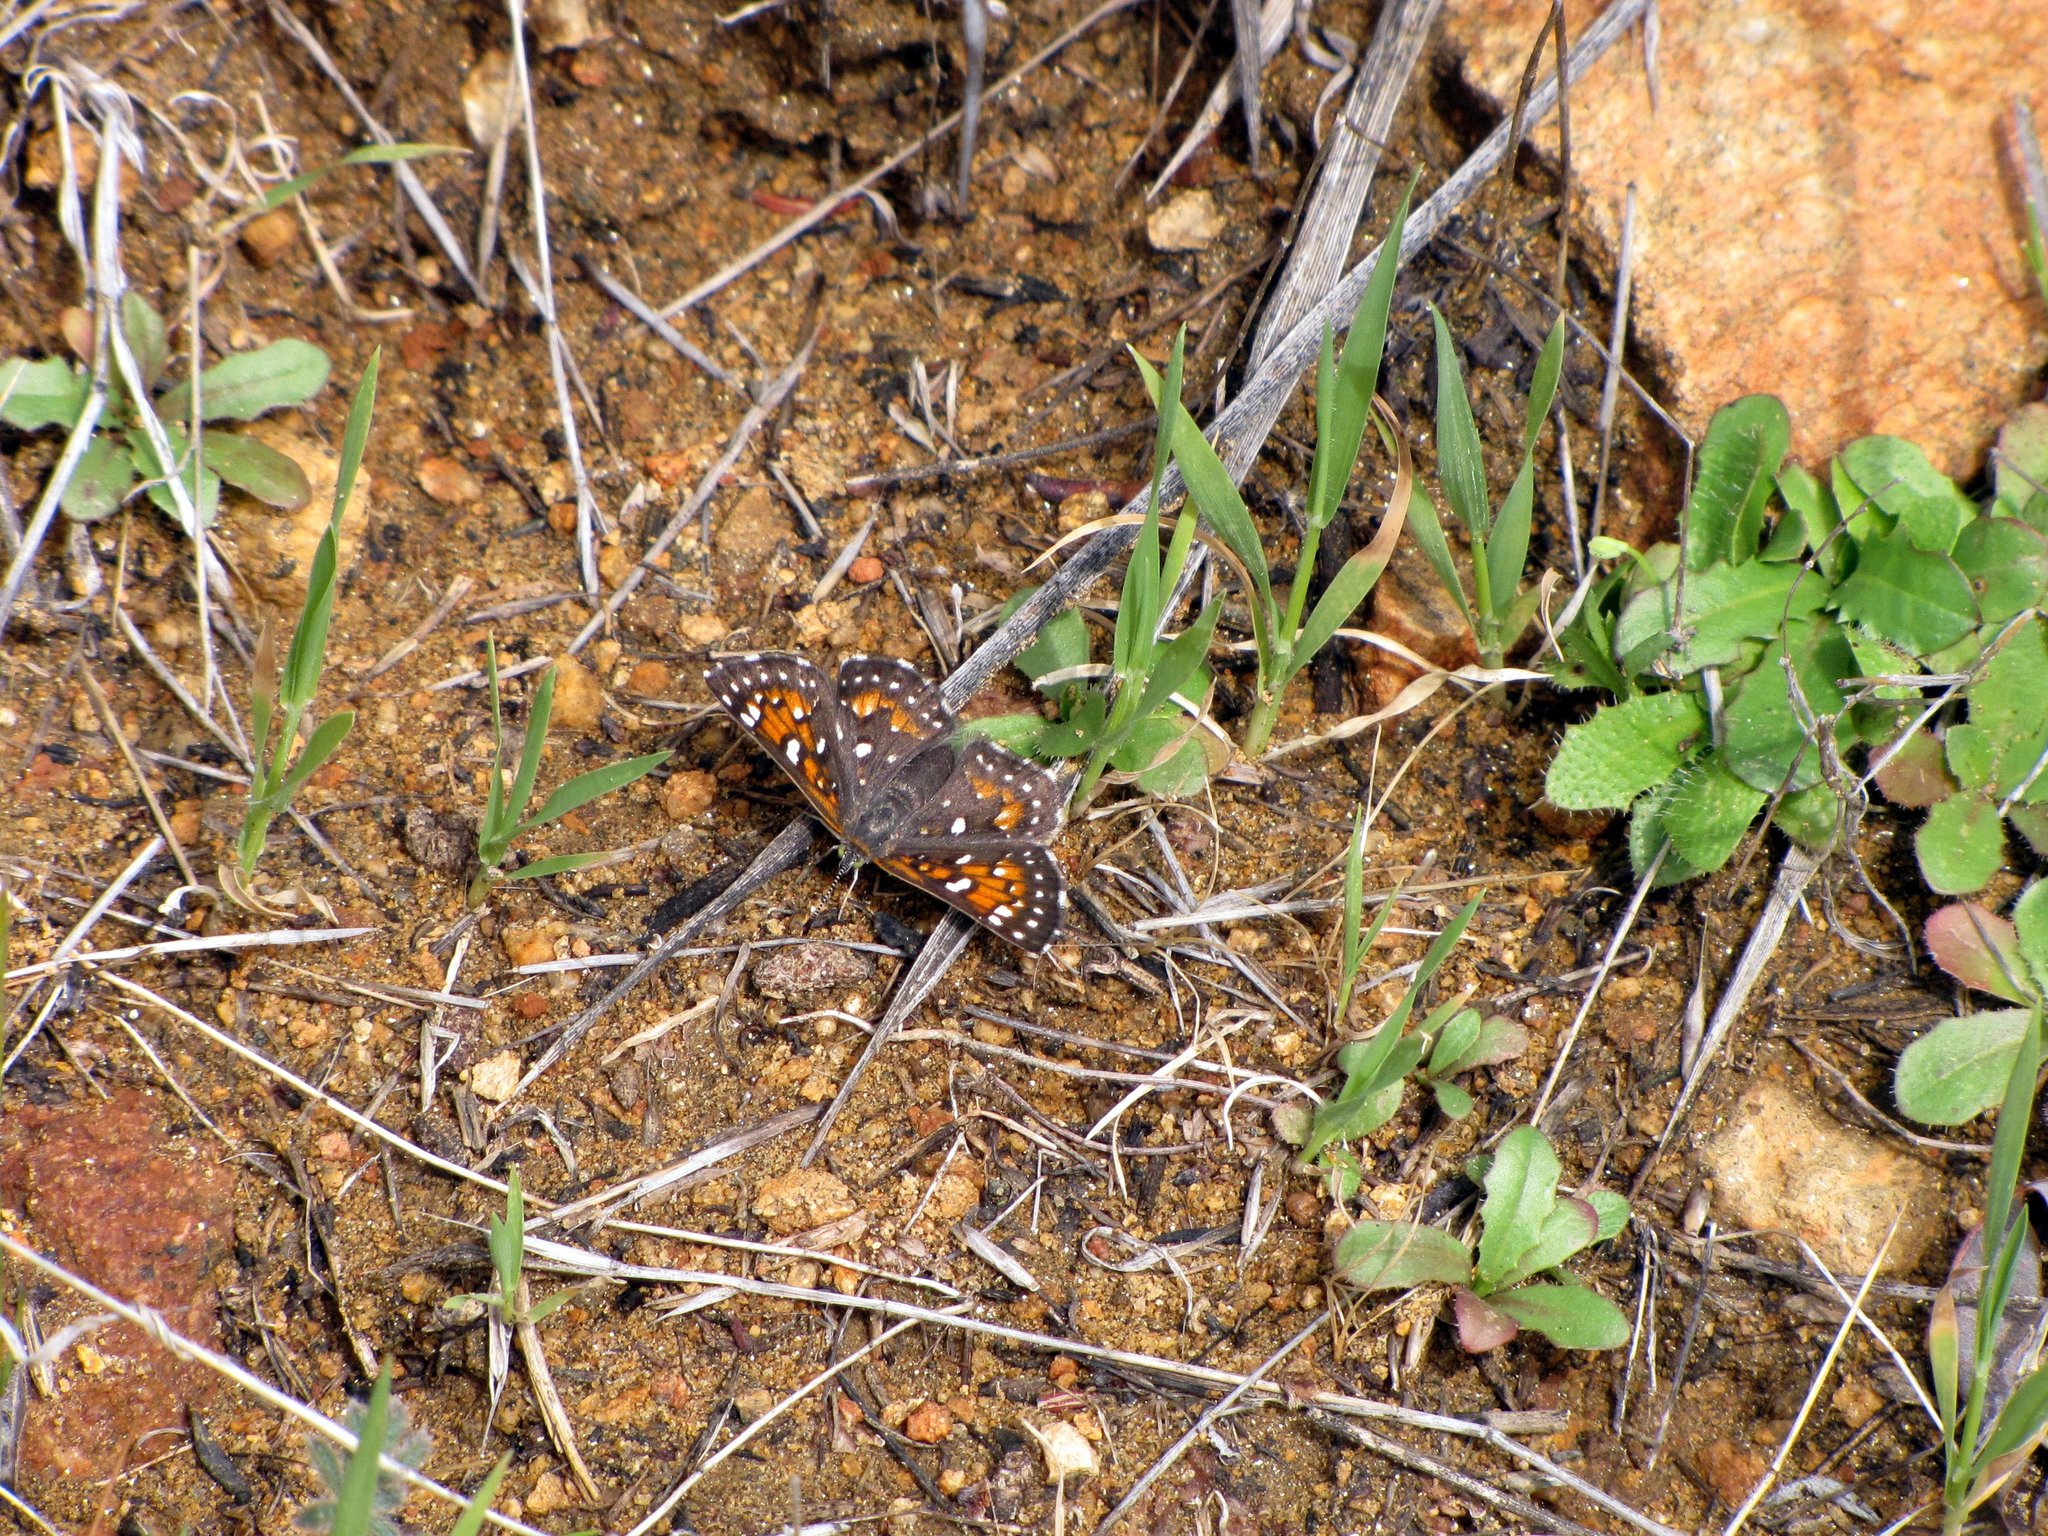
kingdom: Animalia
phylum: Arthropoda
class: Insecta
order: Lepidoptera
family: Riodinidae
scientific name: Riodinidae
